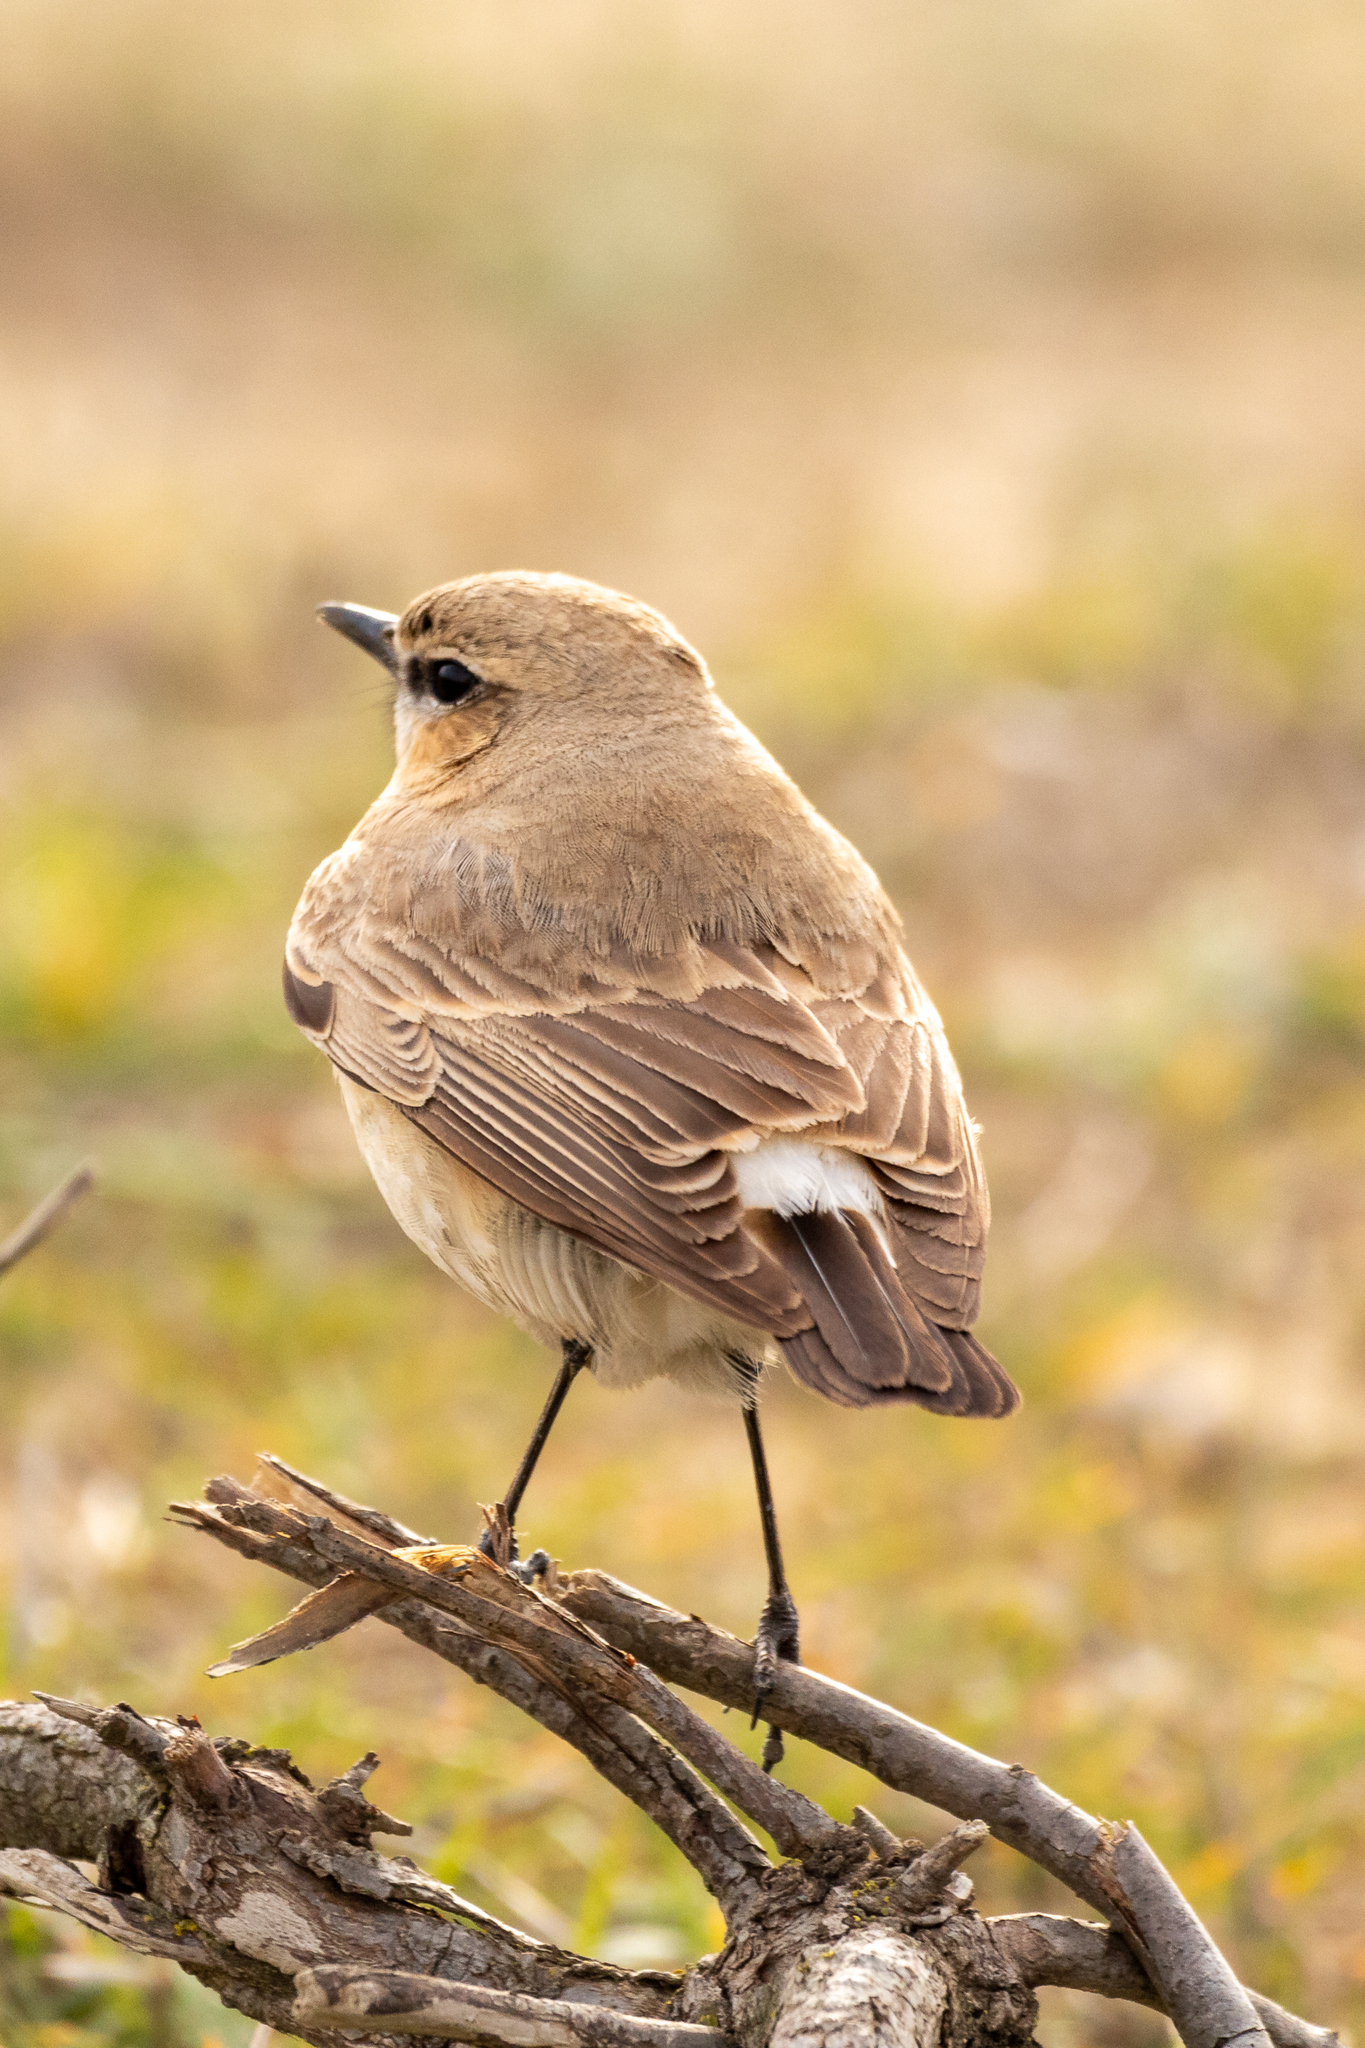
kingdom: Animalia
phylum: Chordata
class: Aves
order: Passeriformes
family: Muscicapidae
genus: Oenanthe
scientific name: Oenanthe isabellina
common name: Isabelline wheatear
